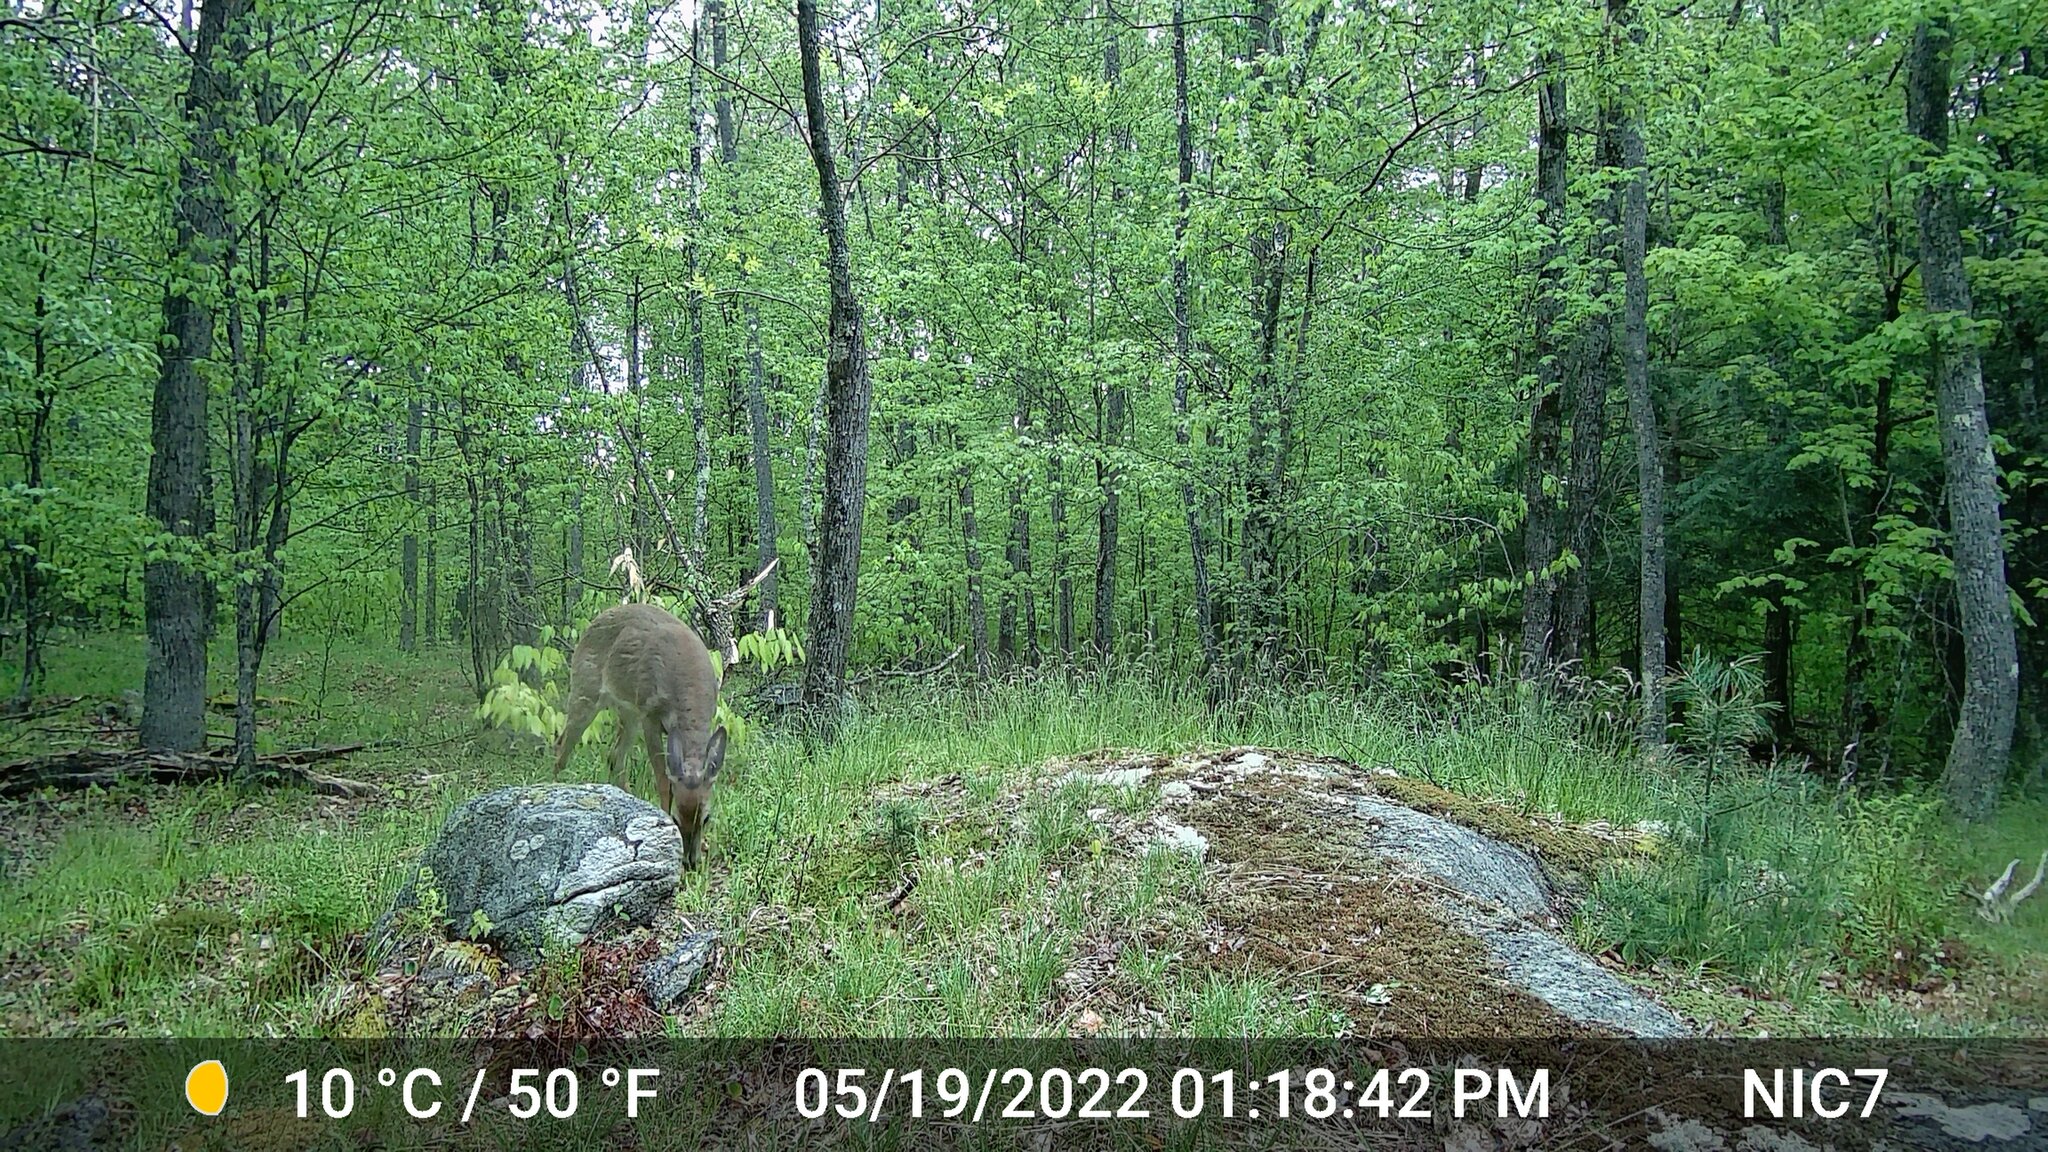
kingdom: Animalia
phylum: Chordata
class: Mammalia
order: Artiodactyla
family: Cervidae
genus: Odocoileus
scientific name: Odocoileus virginianus
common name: White-tailed deer
